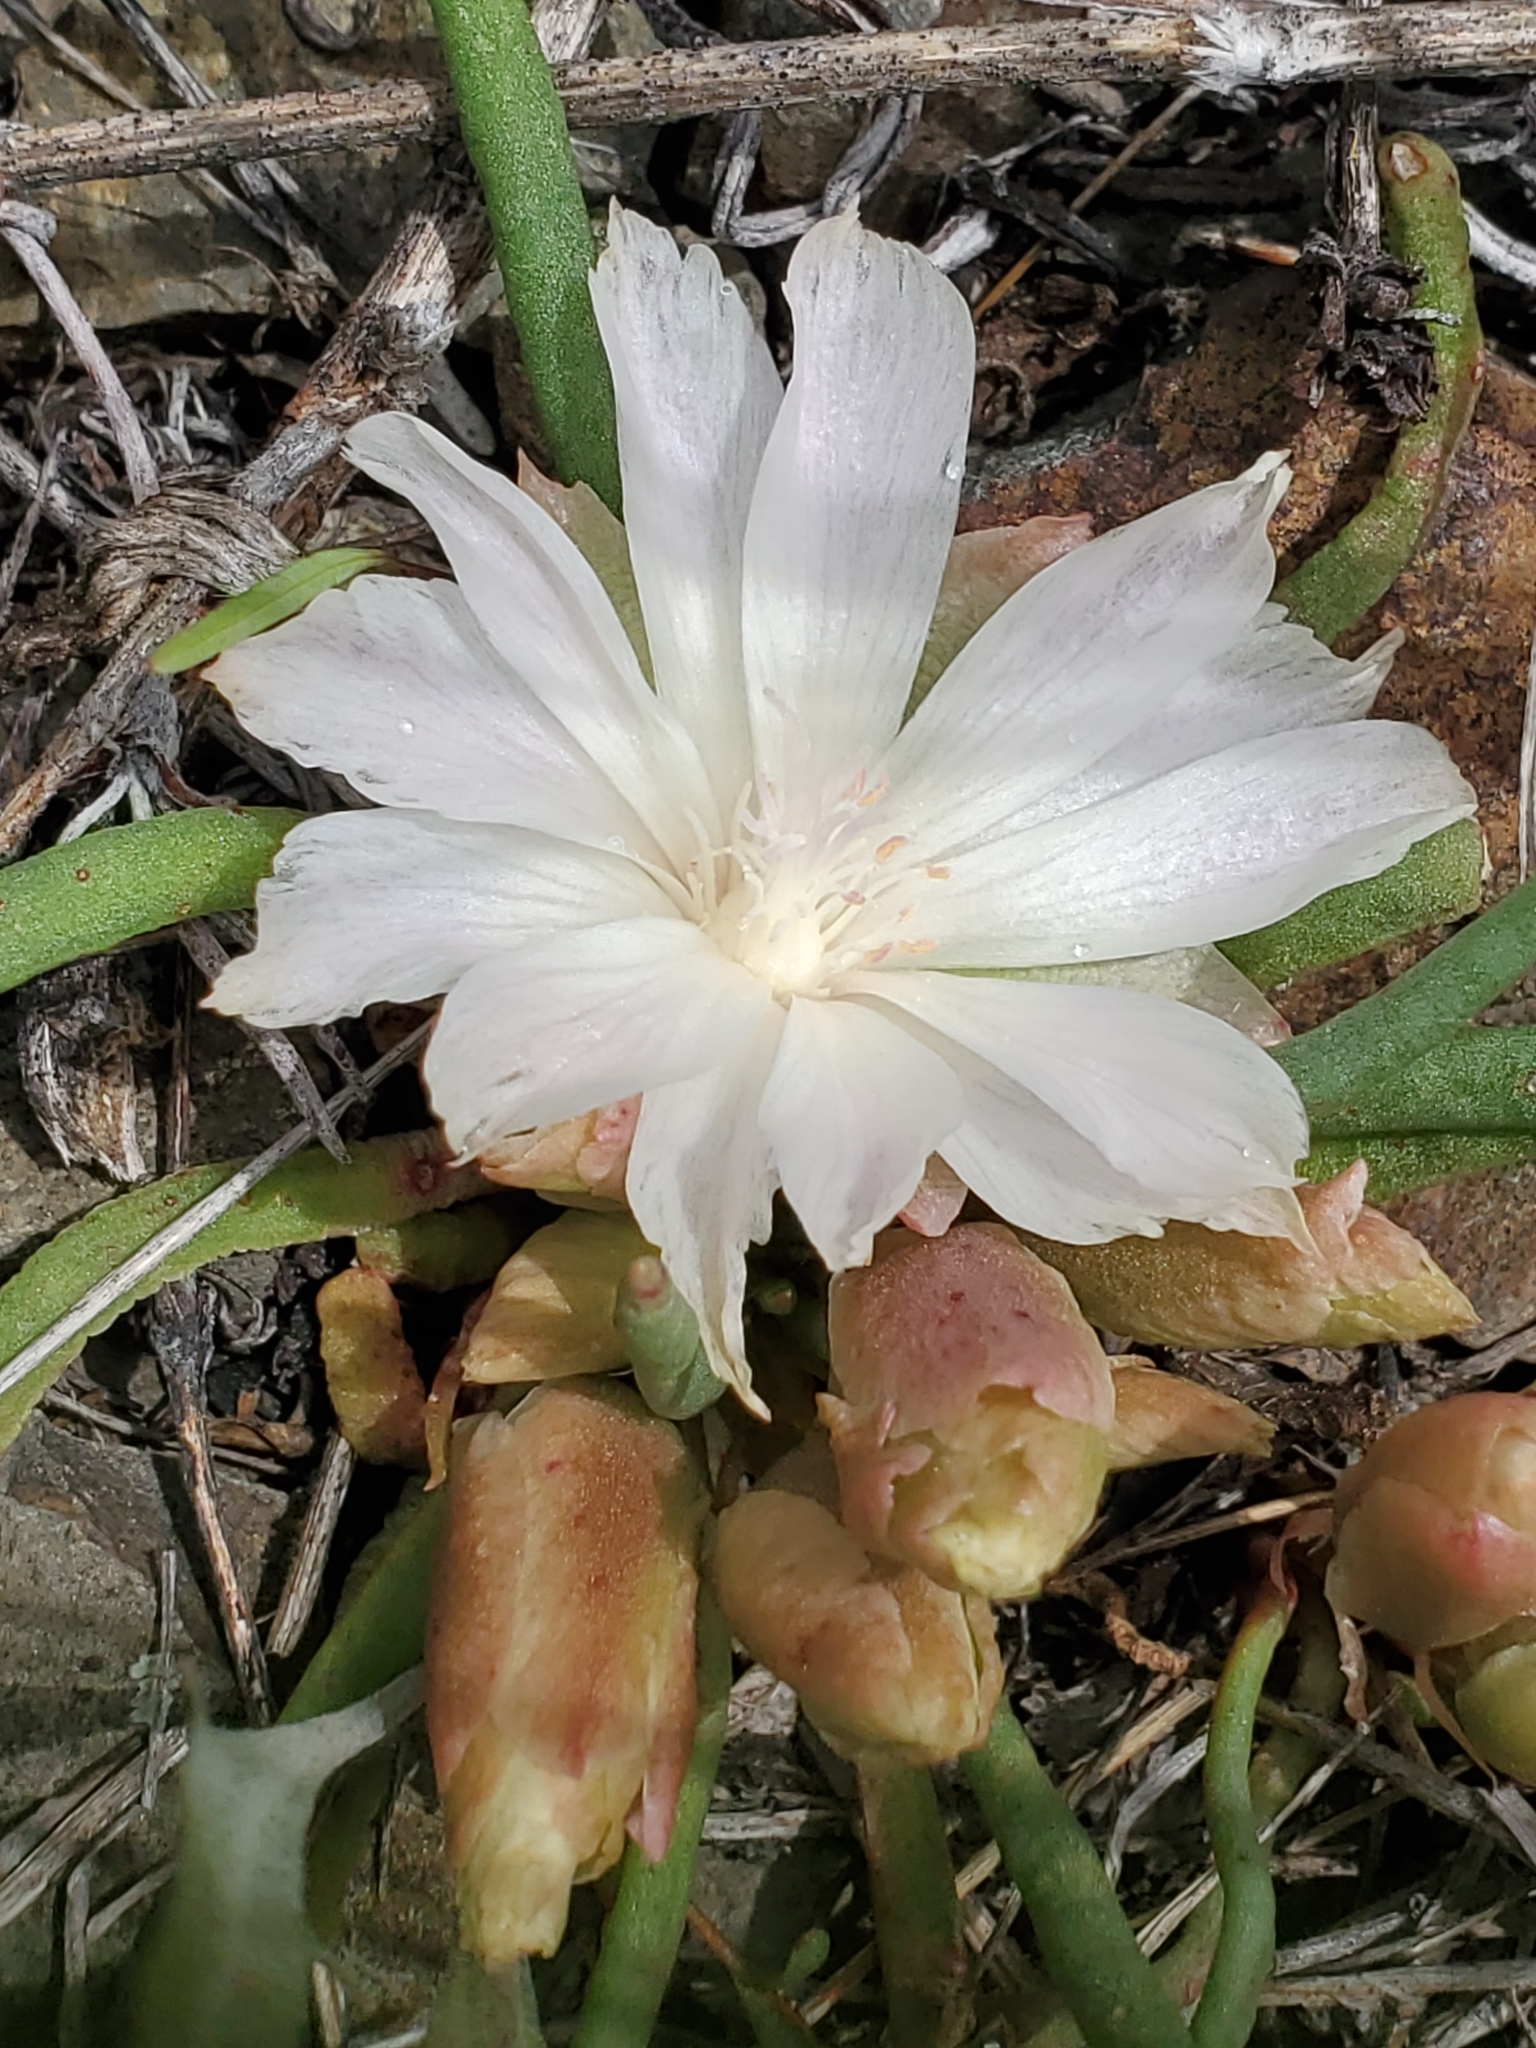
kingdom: Plantae
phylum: Tracheophyta
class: Magnoliopsida
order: Caryophyllales
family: Montiaceae
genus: Lewisia
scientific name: Lewisia rediviva
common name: Bitter-root
